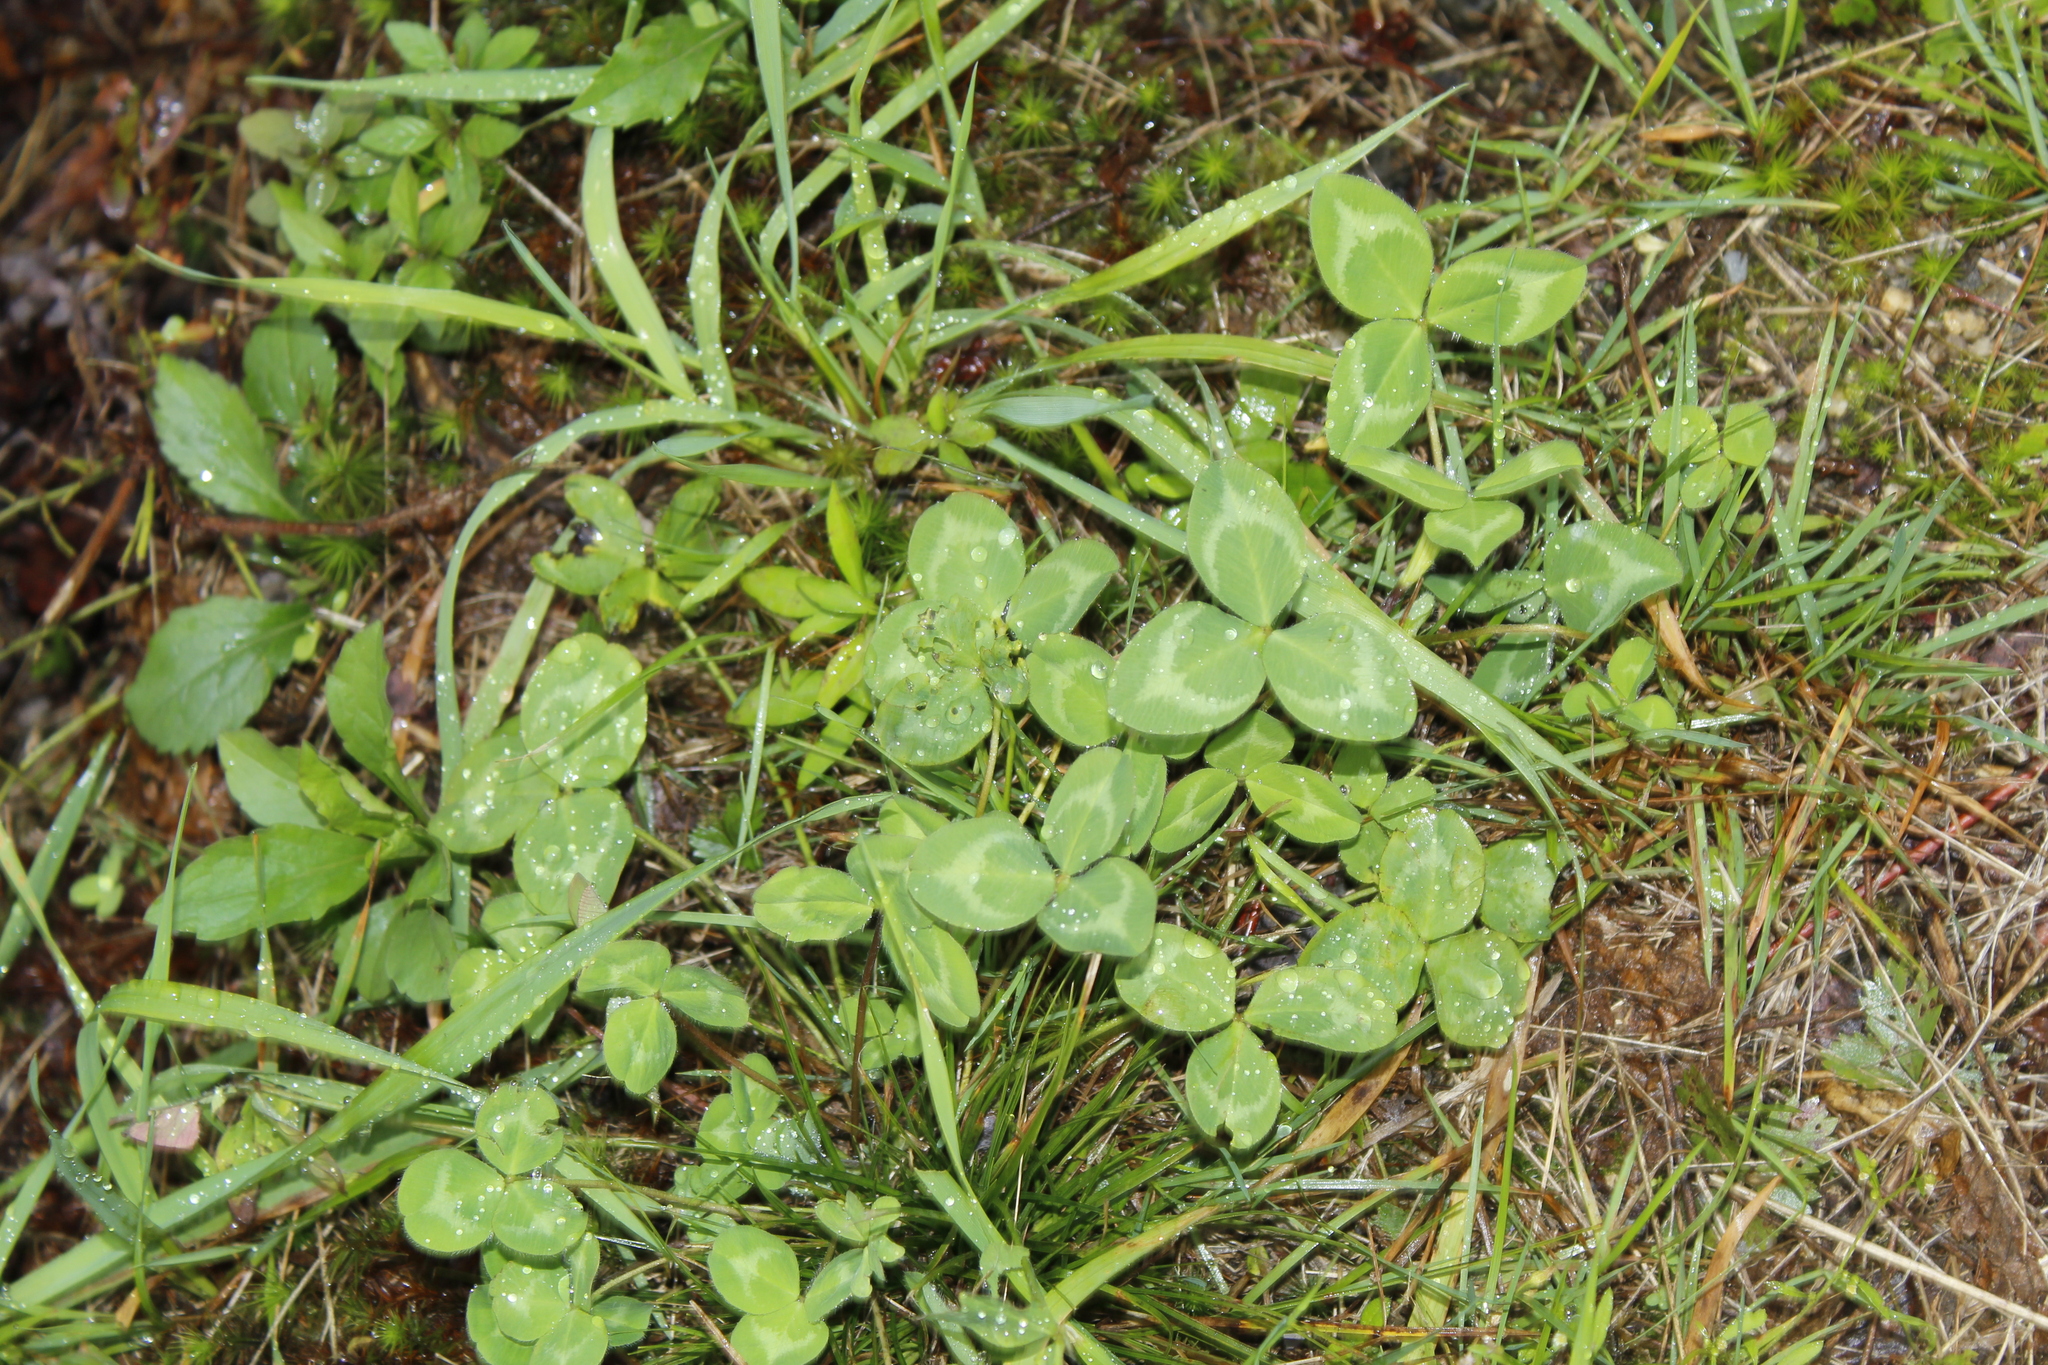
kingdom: Plantae
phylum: Tracheophyta
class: Magnoliopsida
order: Fabales
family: Fabaceae
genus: Trifolium
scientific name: Trifolium pratense
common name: Red clover
